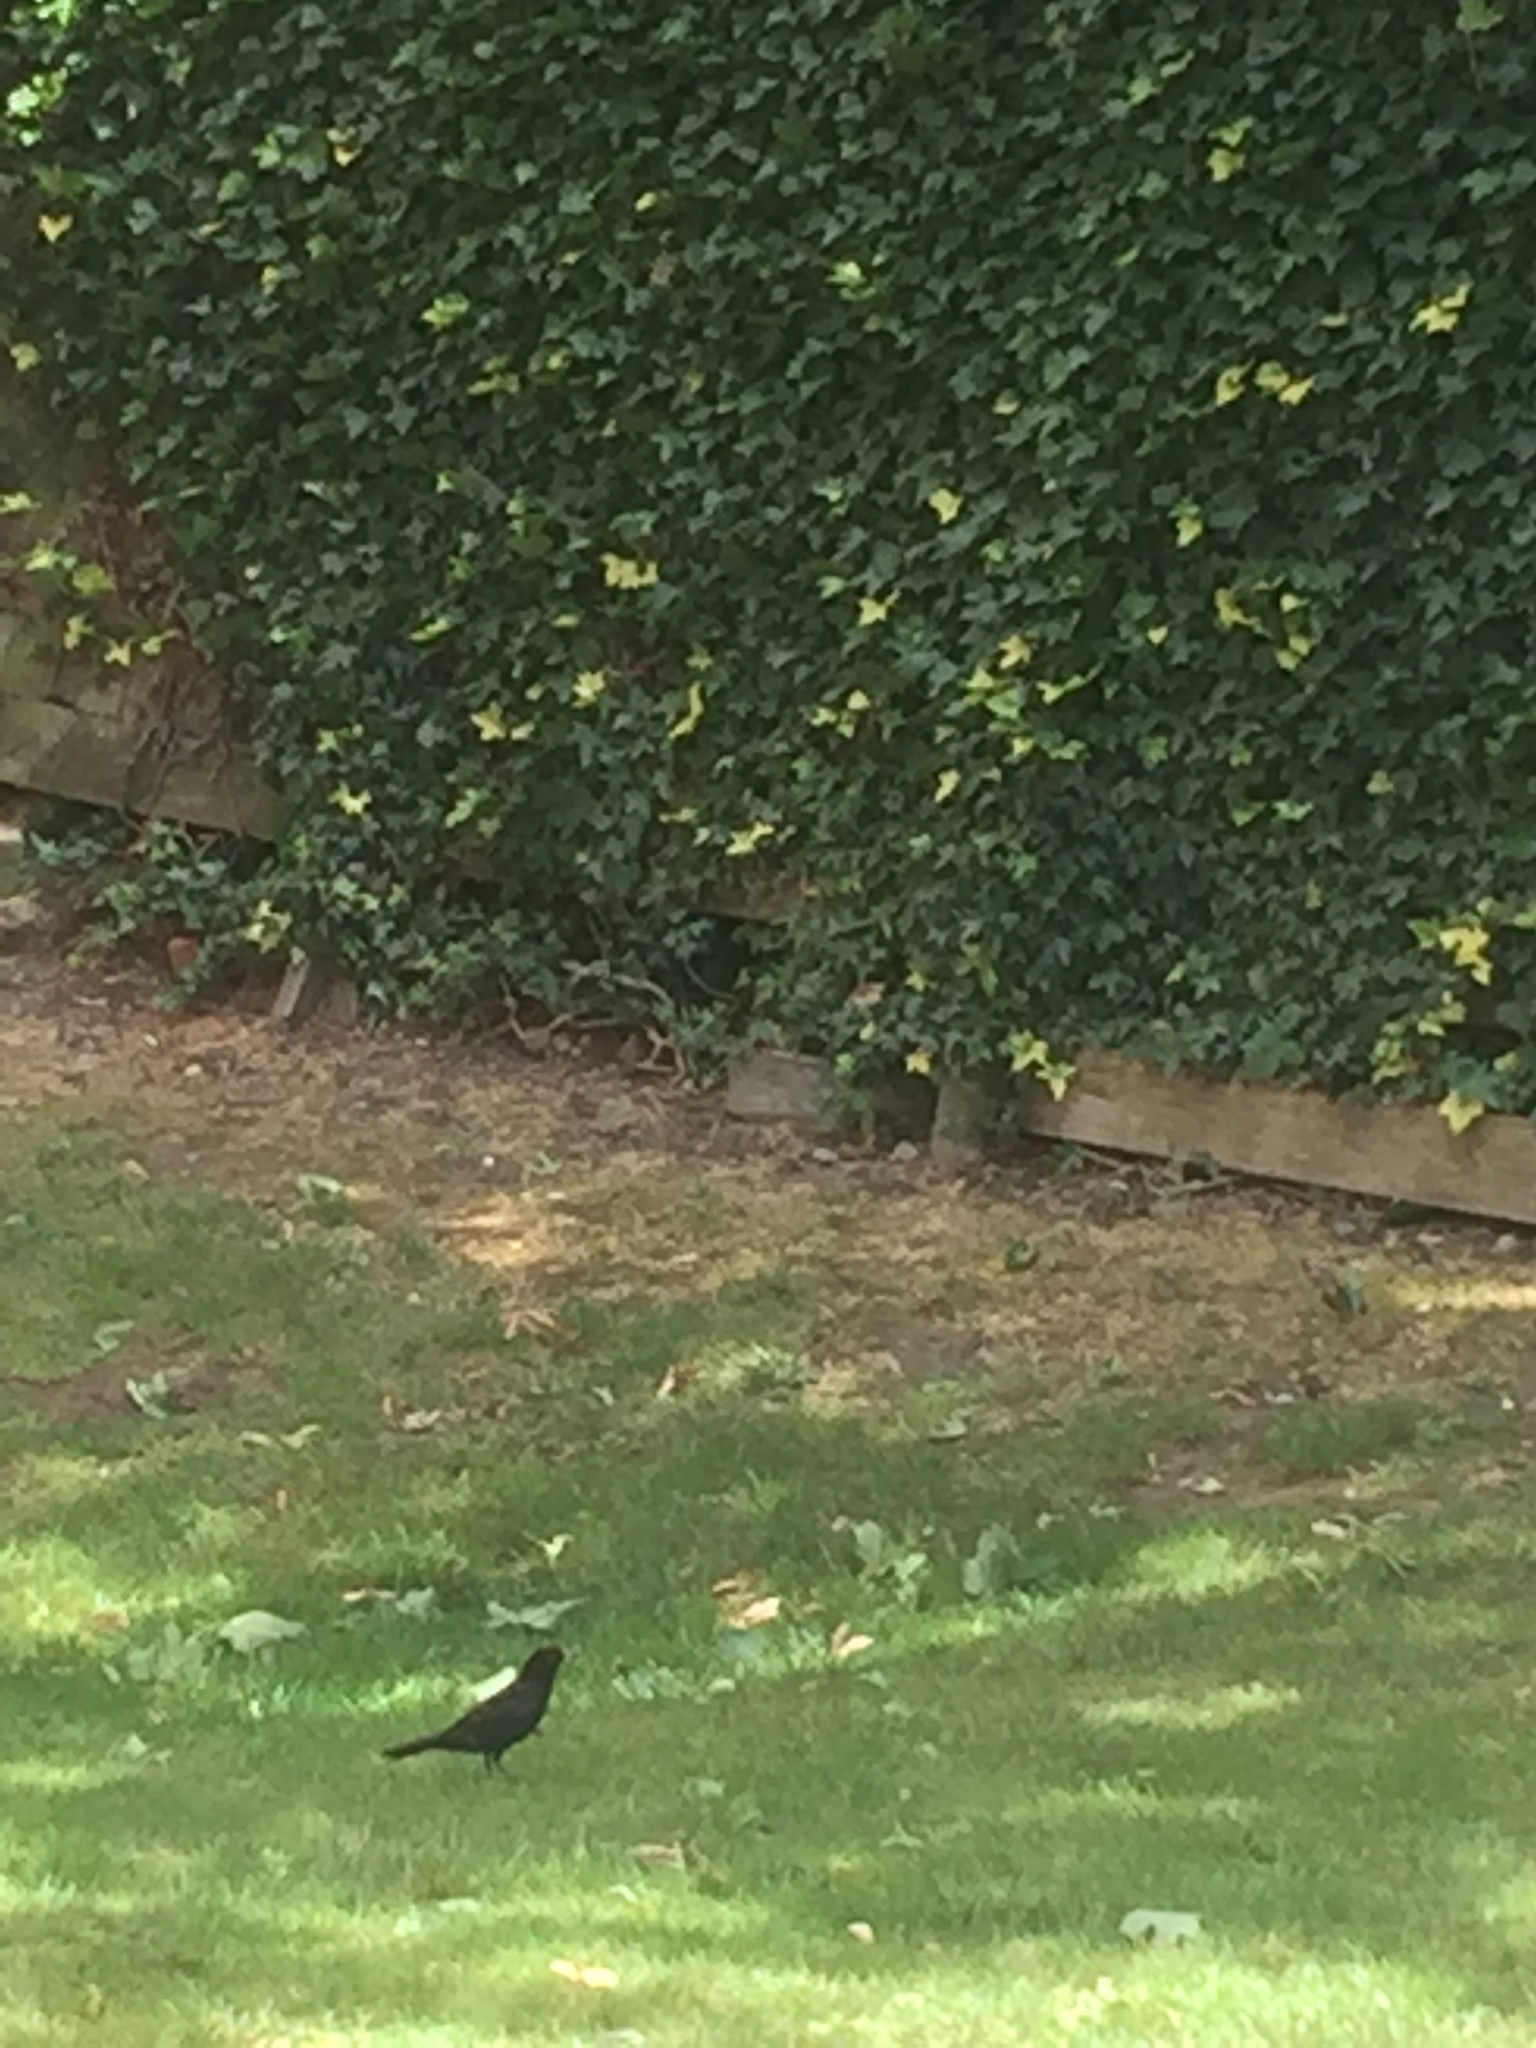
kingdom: Animalia
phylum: Chordata
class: Aves
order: Passeriformes
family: Turdidae
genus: Turdus
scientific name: Turdus merula
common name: Common blackbird
